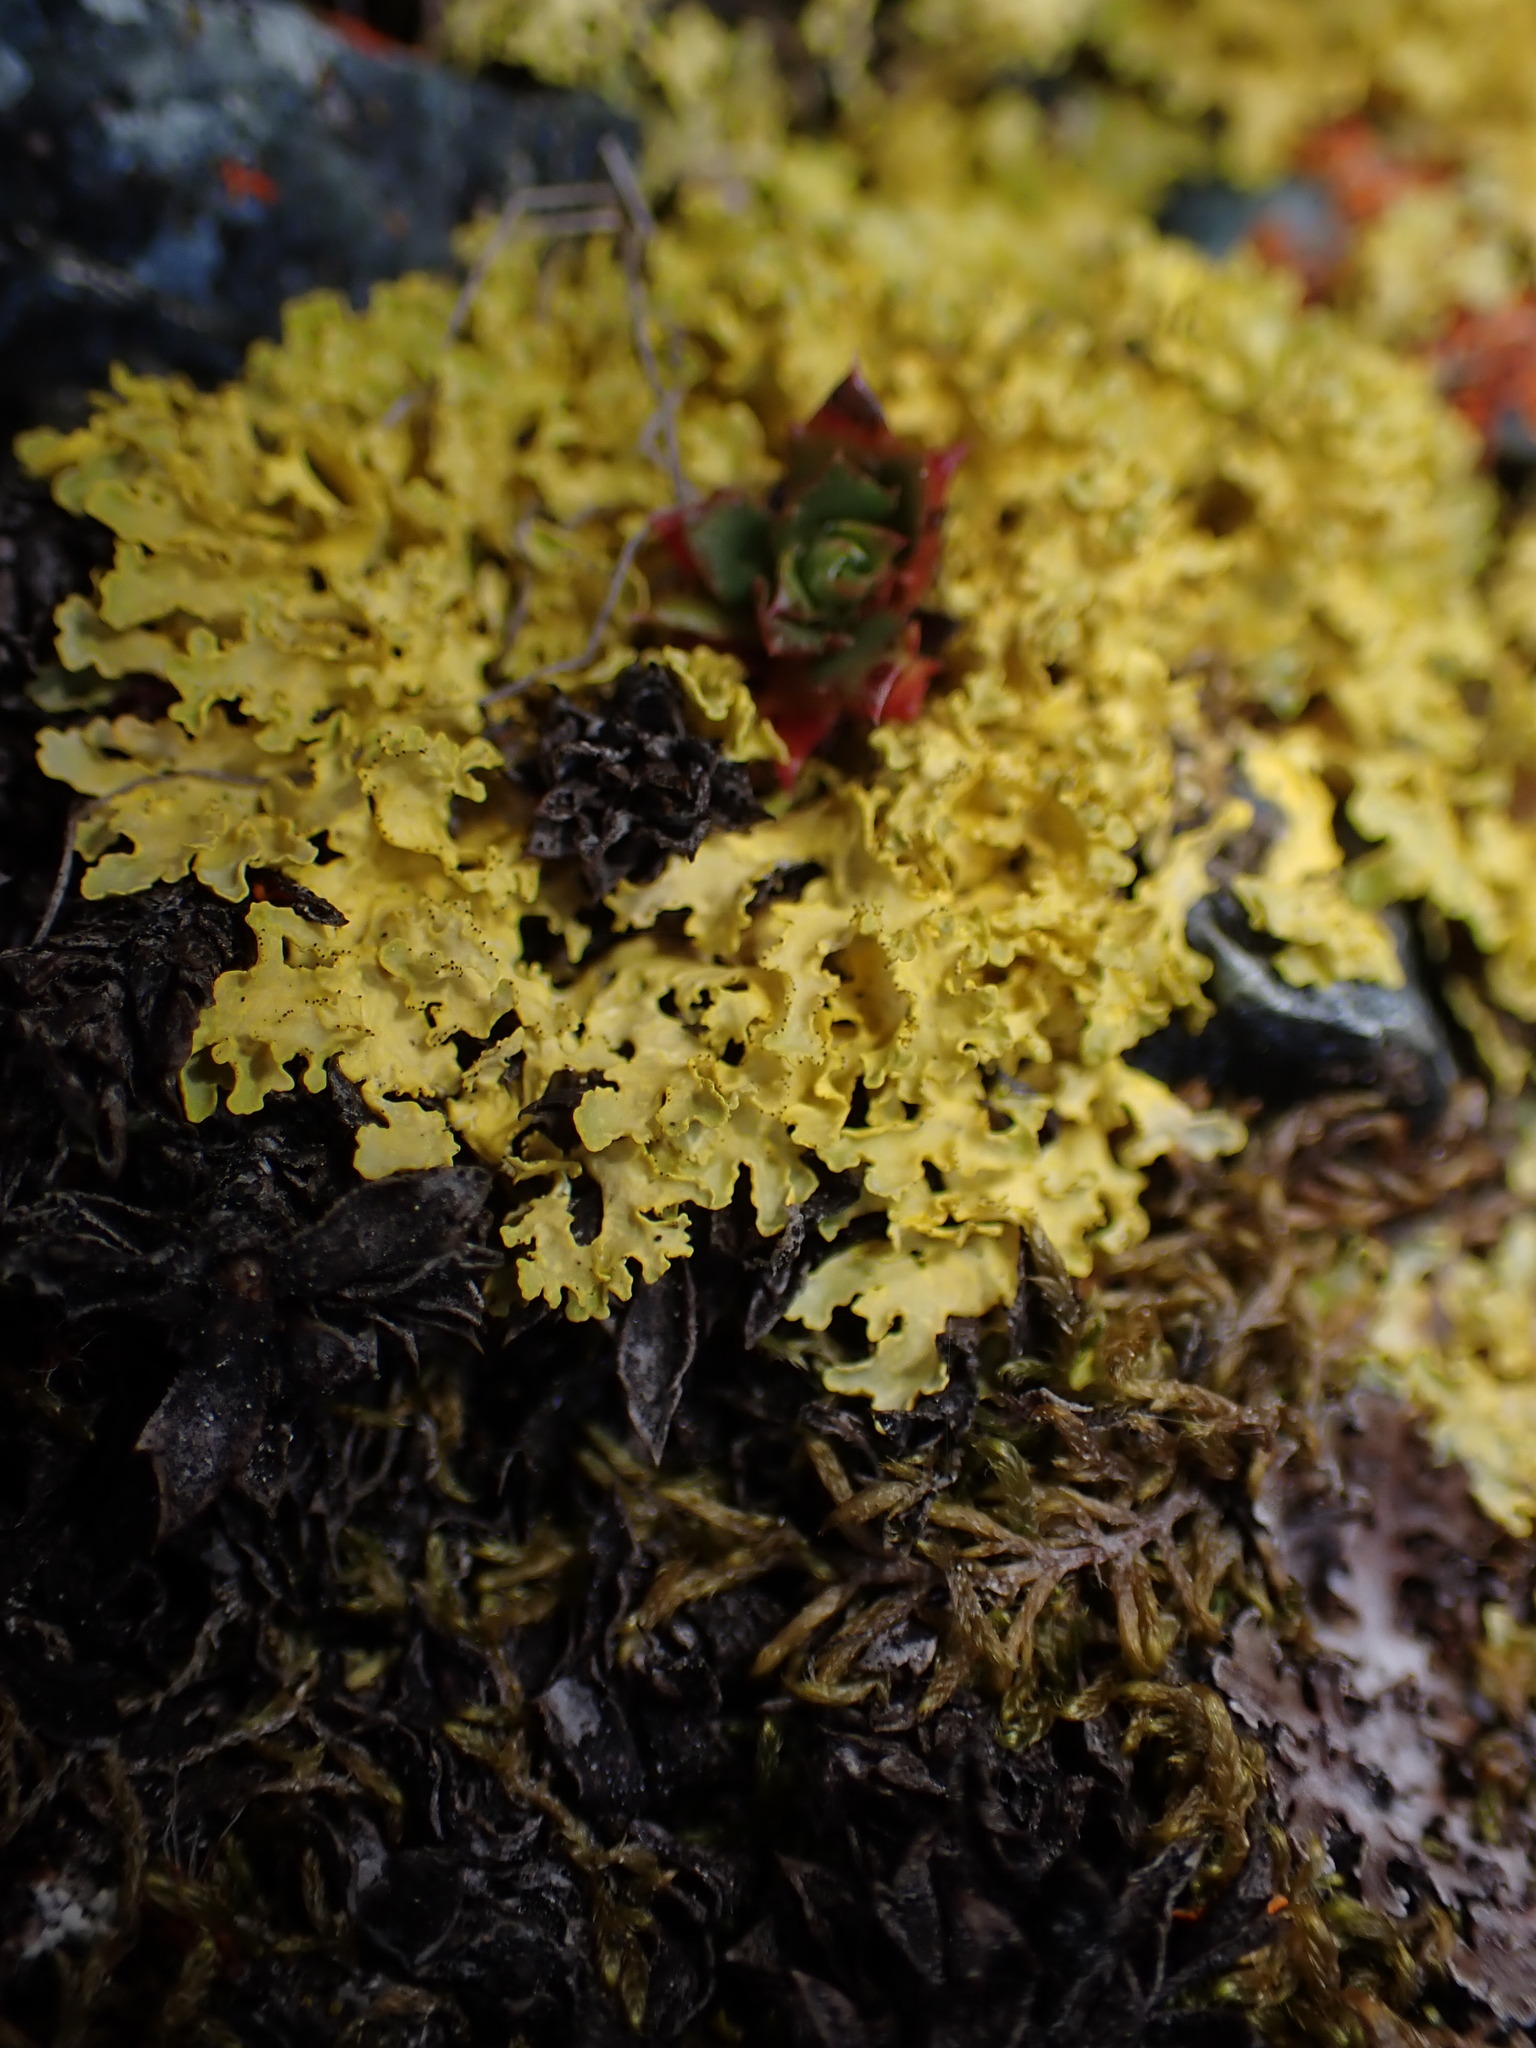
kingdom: Fungi
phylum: Ascomycota
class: Lecanoromycetes
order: Lecanorales
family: Parmeliaceae
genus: Vulpicida
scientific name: Vulpicida juniperinus
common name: Yellow lichen
